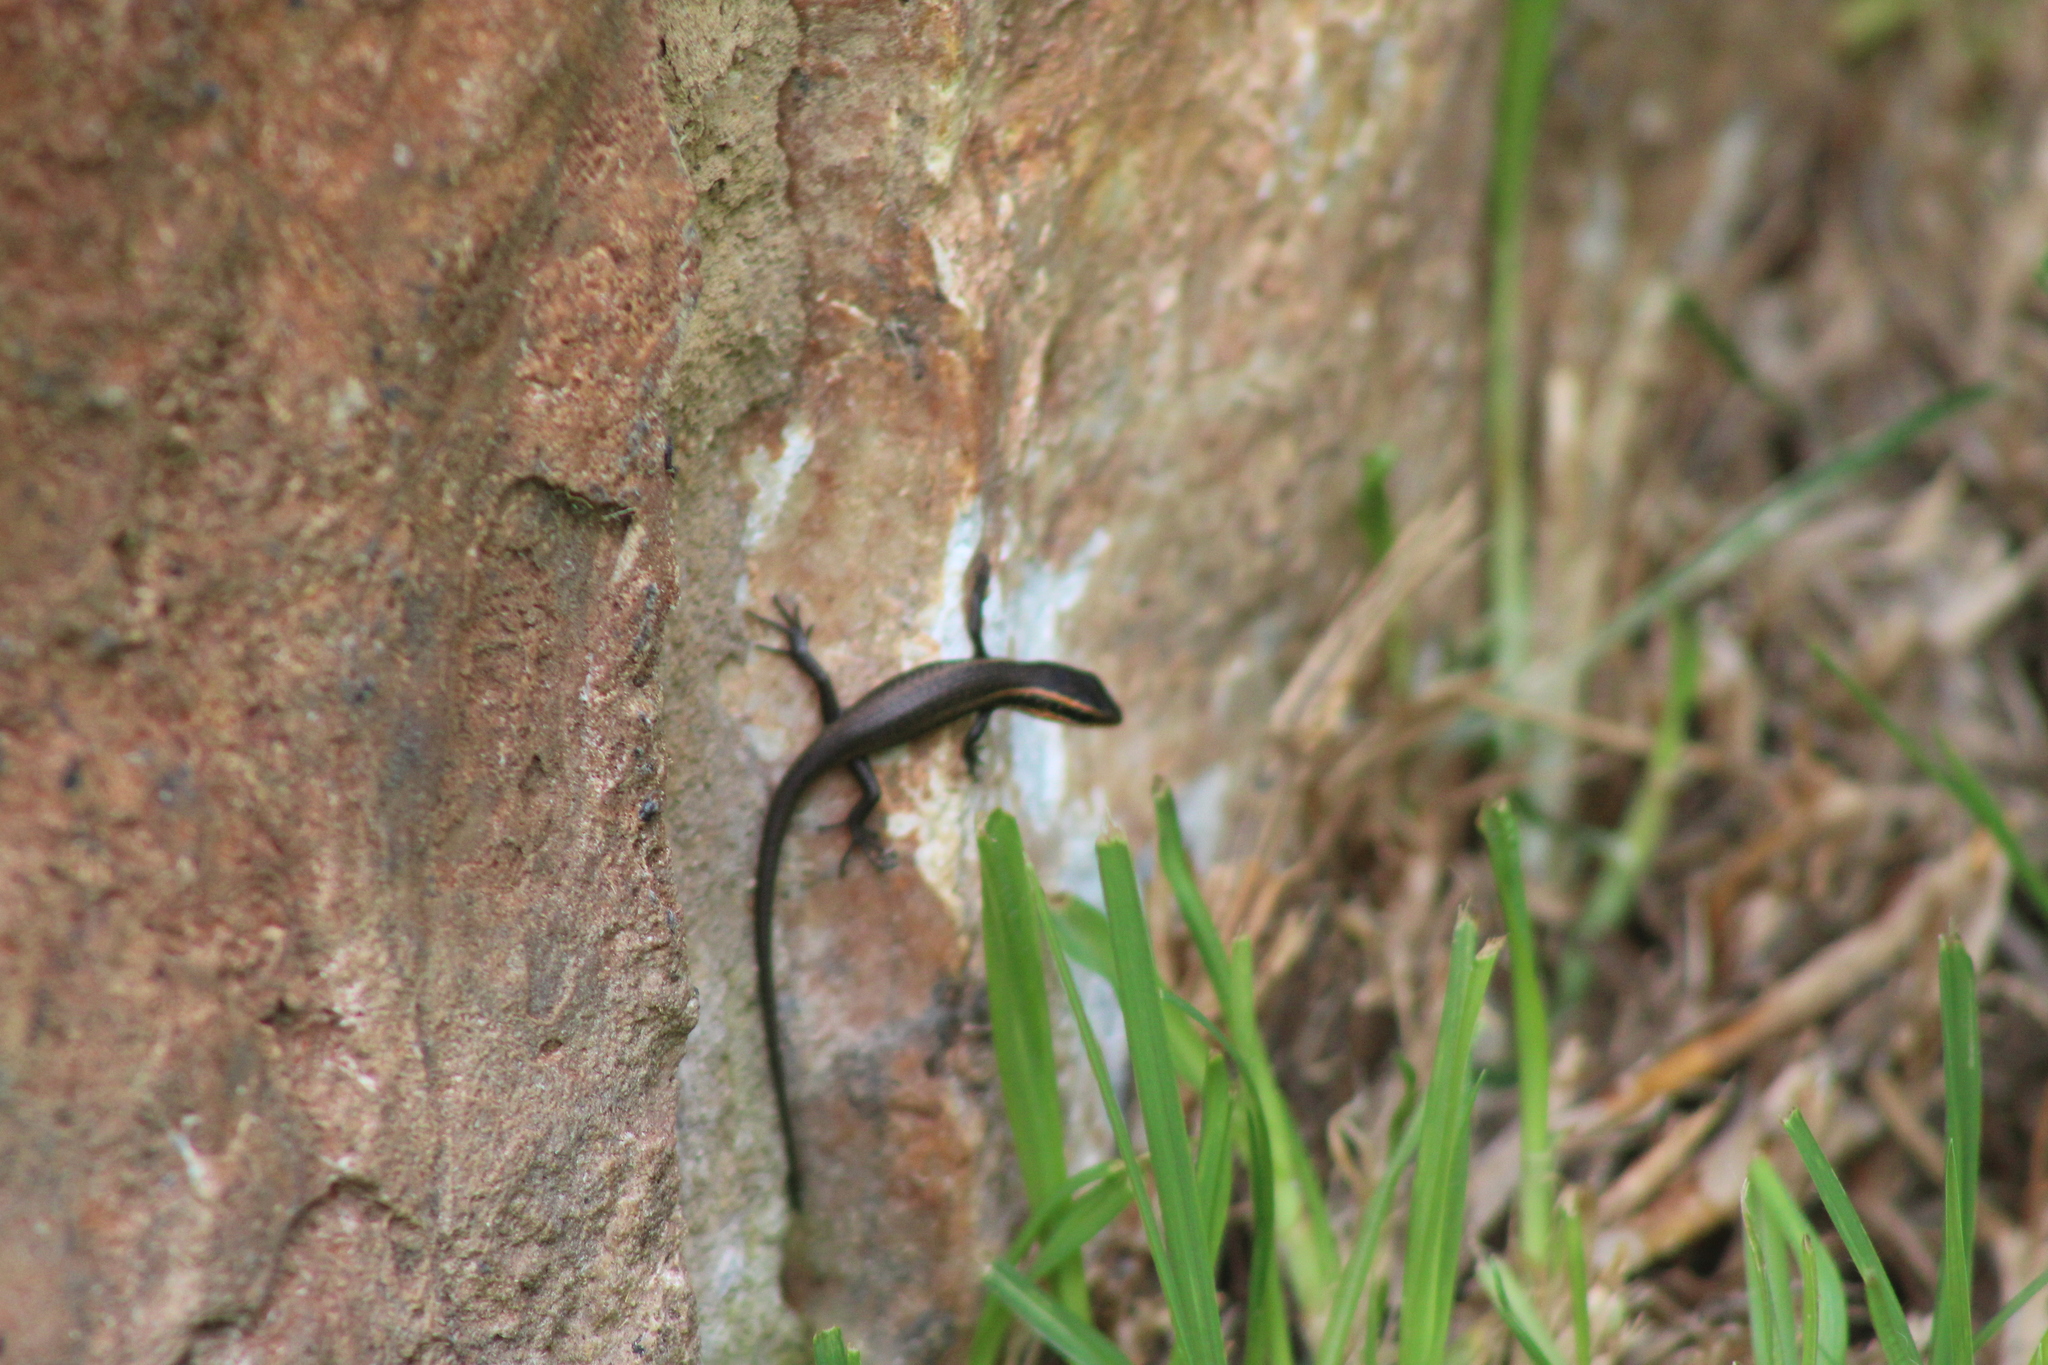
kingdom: Animalia
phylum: Chordata
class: Squamata
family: Scincidae
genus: Trachylepis
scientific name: Trachylepis punctatissima
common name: Montane speckled skink
